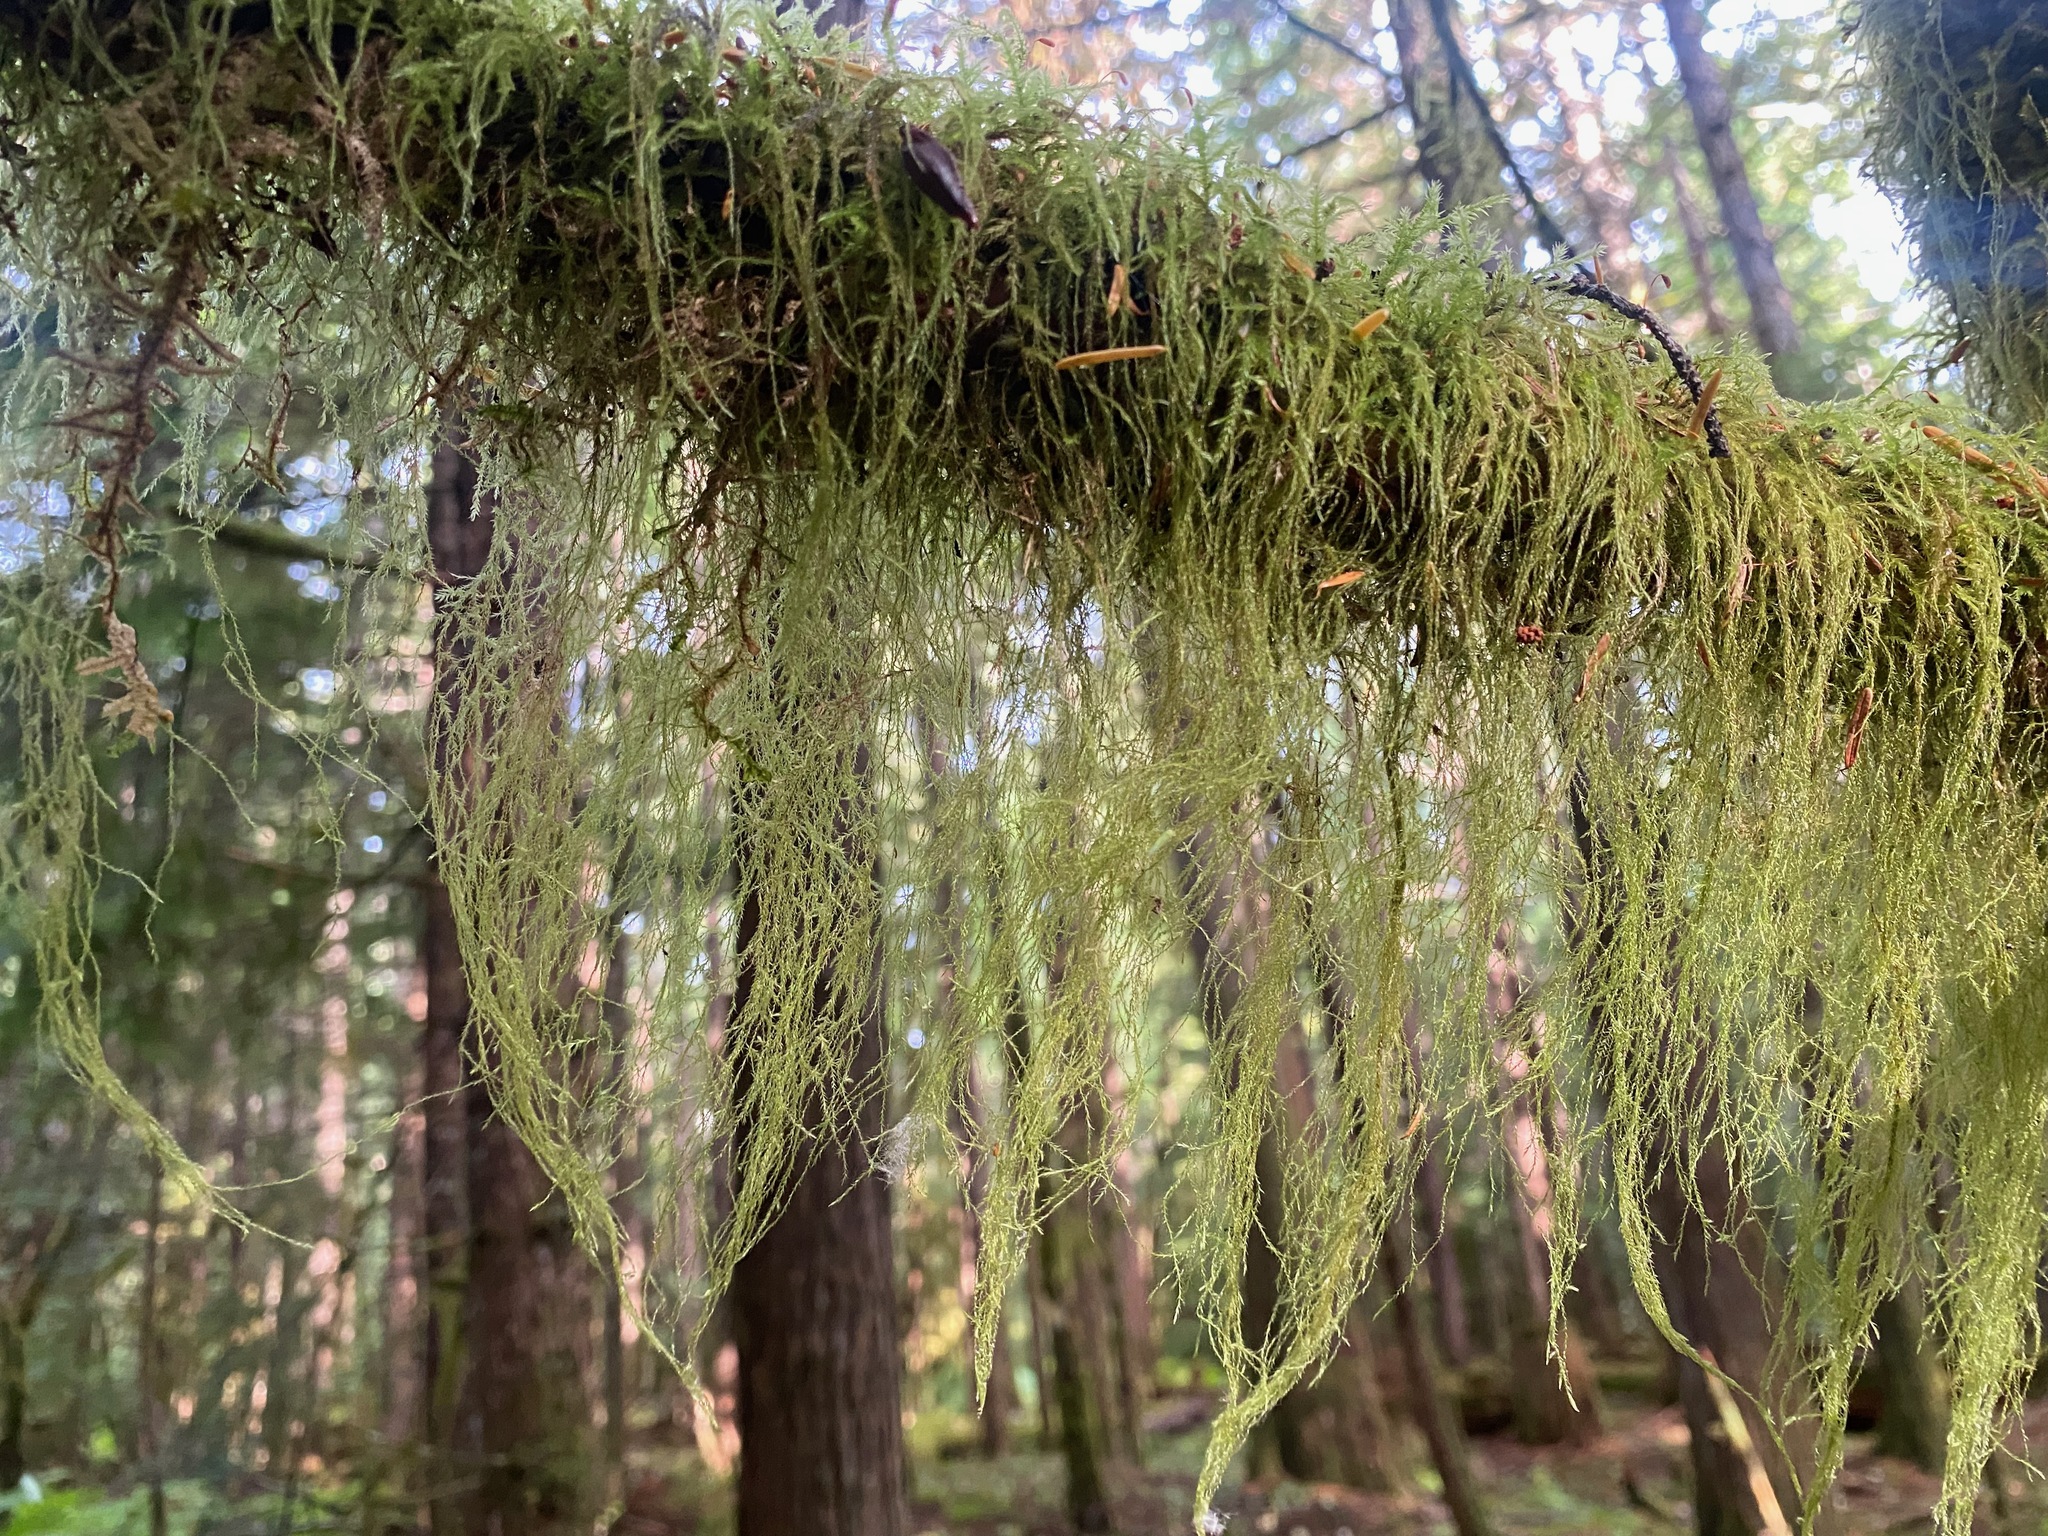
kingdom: Plantae
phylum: Bryophyta
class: Bryopsida
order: Hypnales
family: Lembophyllaceae
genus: Pseudisothecium
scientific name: Pseudisothecium stoloniferum
